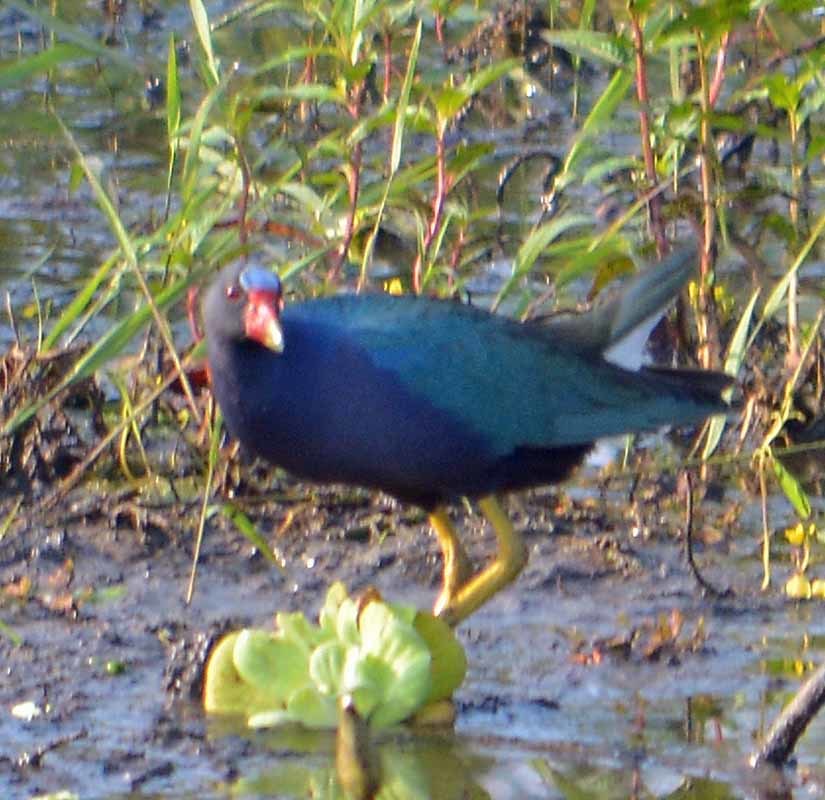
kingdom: Animalia
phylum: Chordata
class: Aves
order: Gruiformes
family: Rallidae
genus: Porphyrio
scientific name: Porphyrio martinica
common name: Purple gallinule
